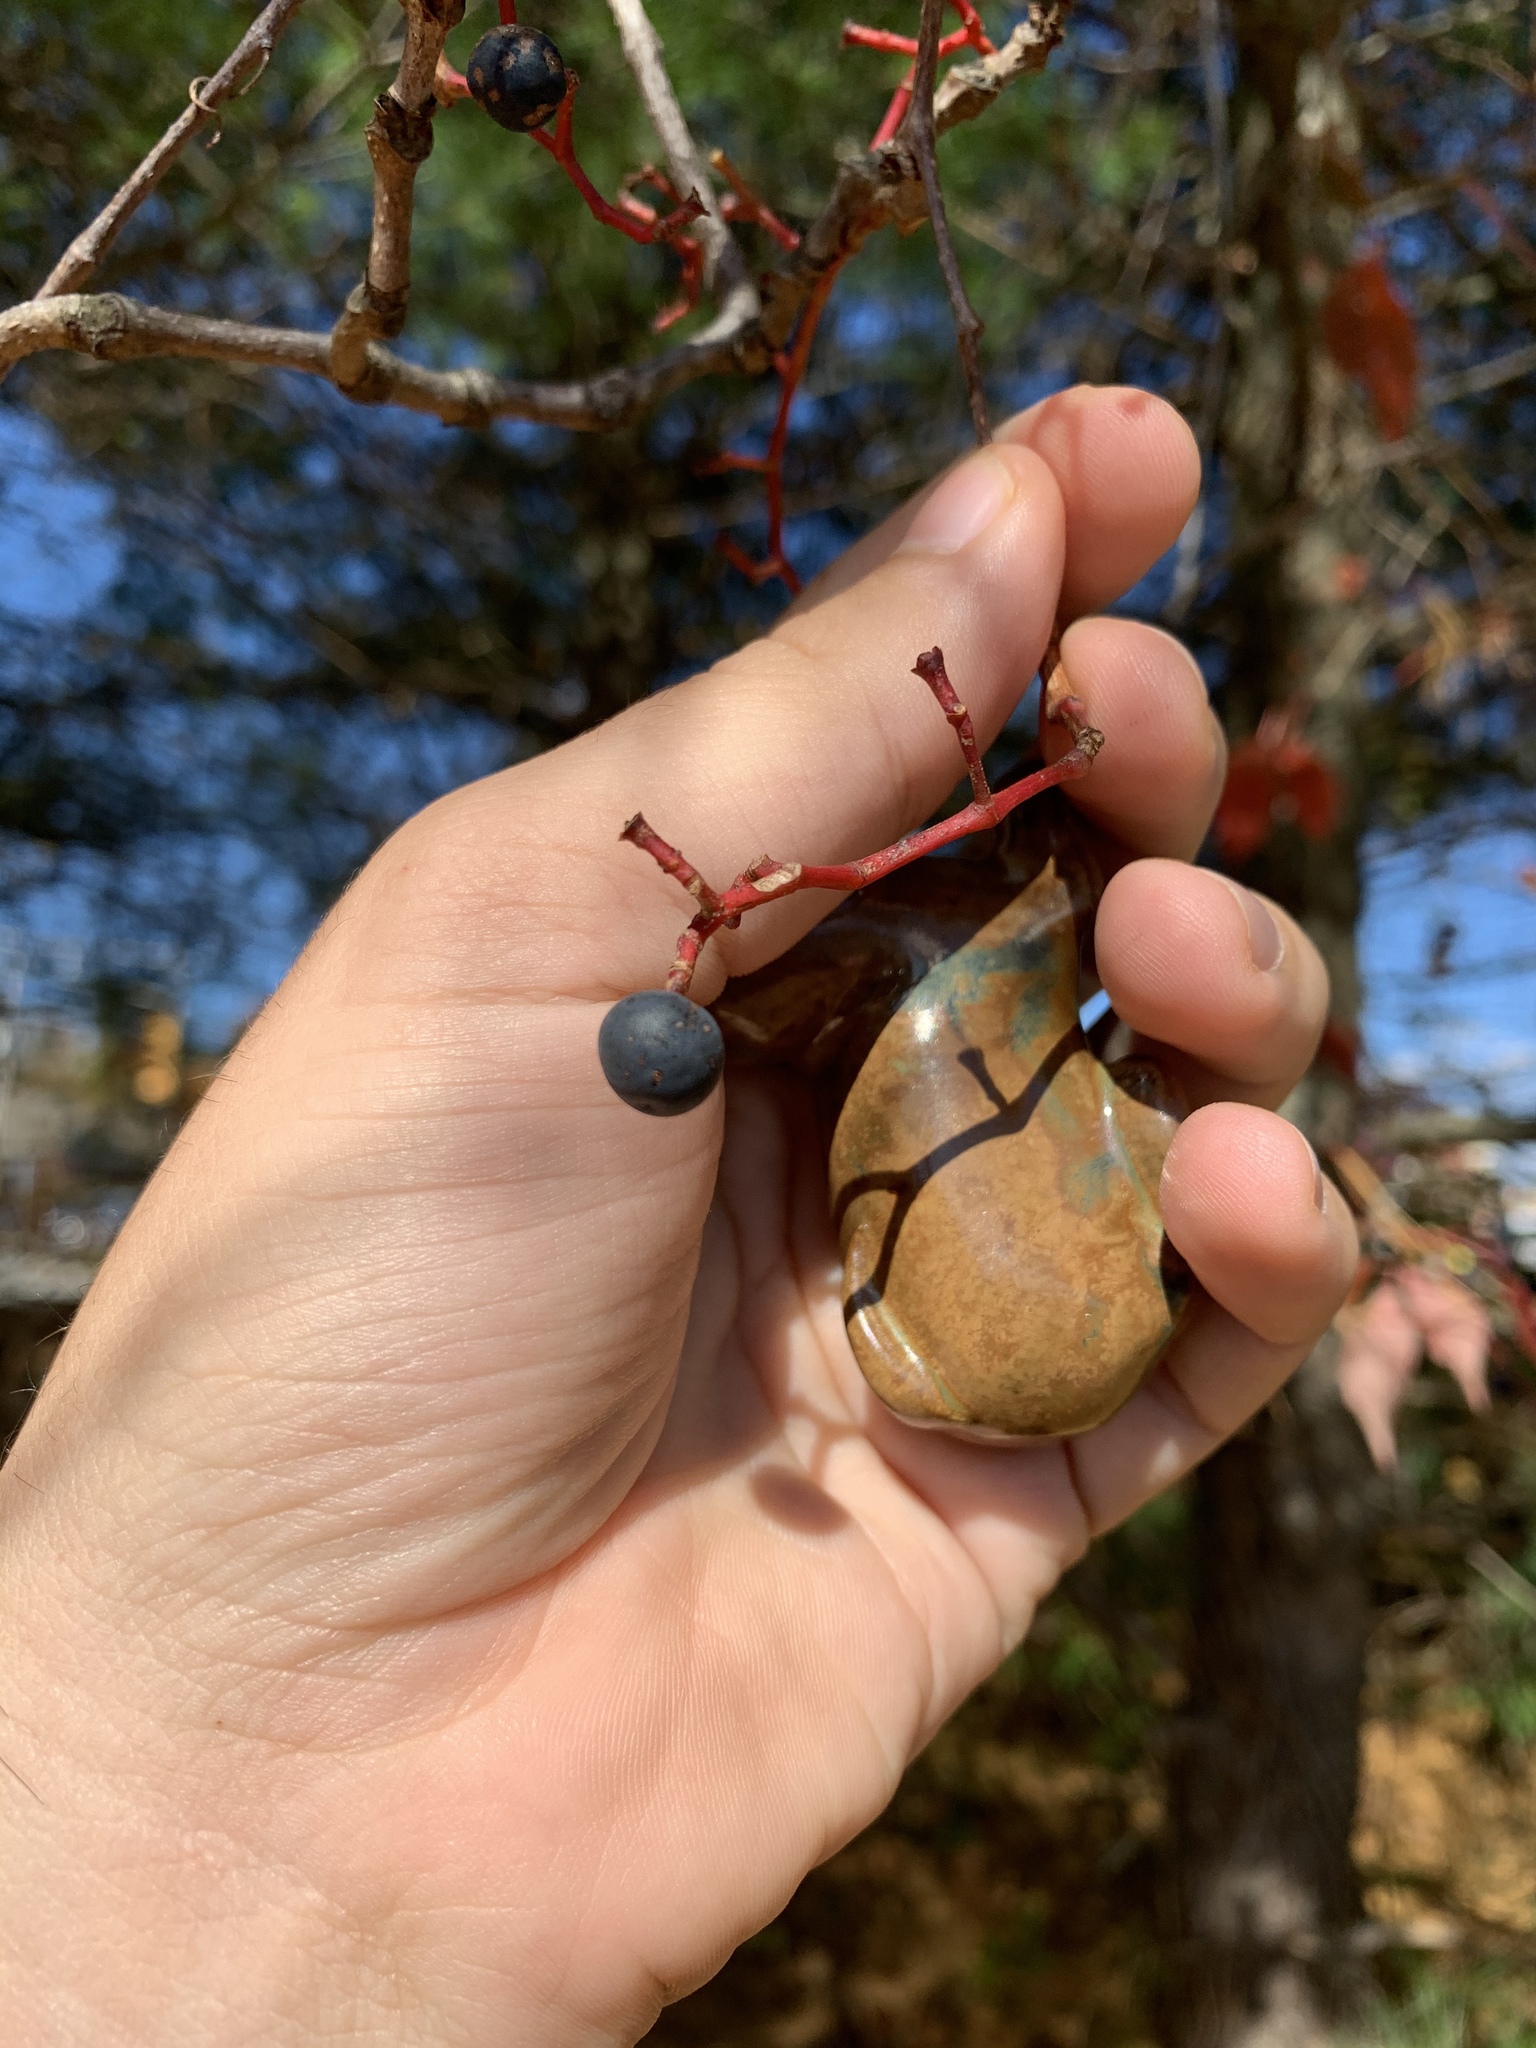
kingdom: Plantae
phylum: Tracheophyta
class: Magnoliopsida
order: Vitales
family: Vitaceae
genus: Parthenocissus
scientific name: Parthenocissus quinquefolia
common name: Virginia-creeper
